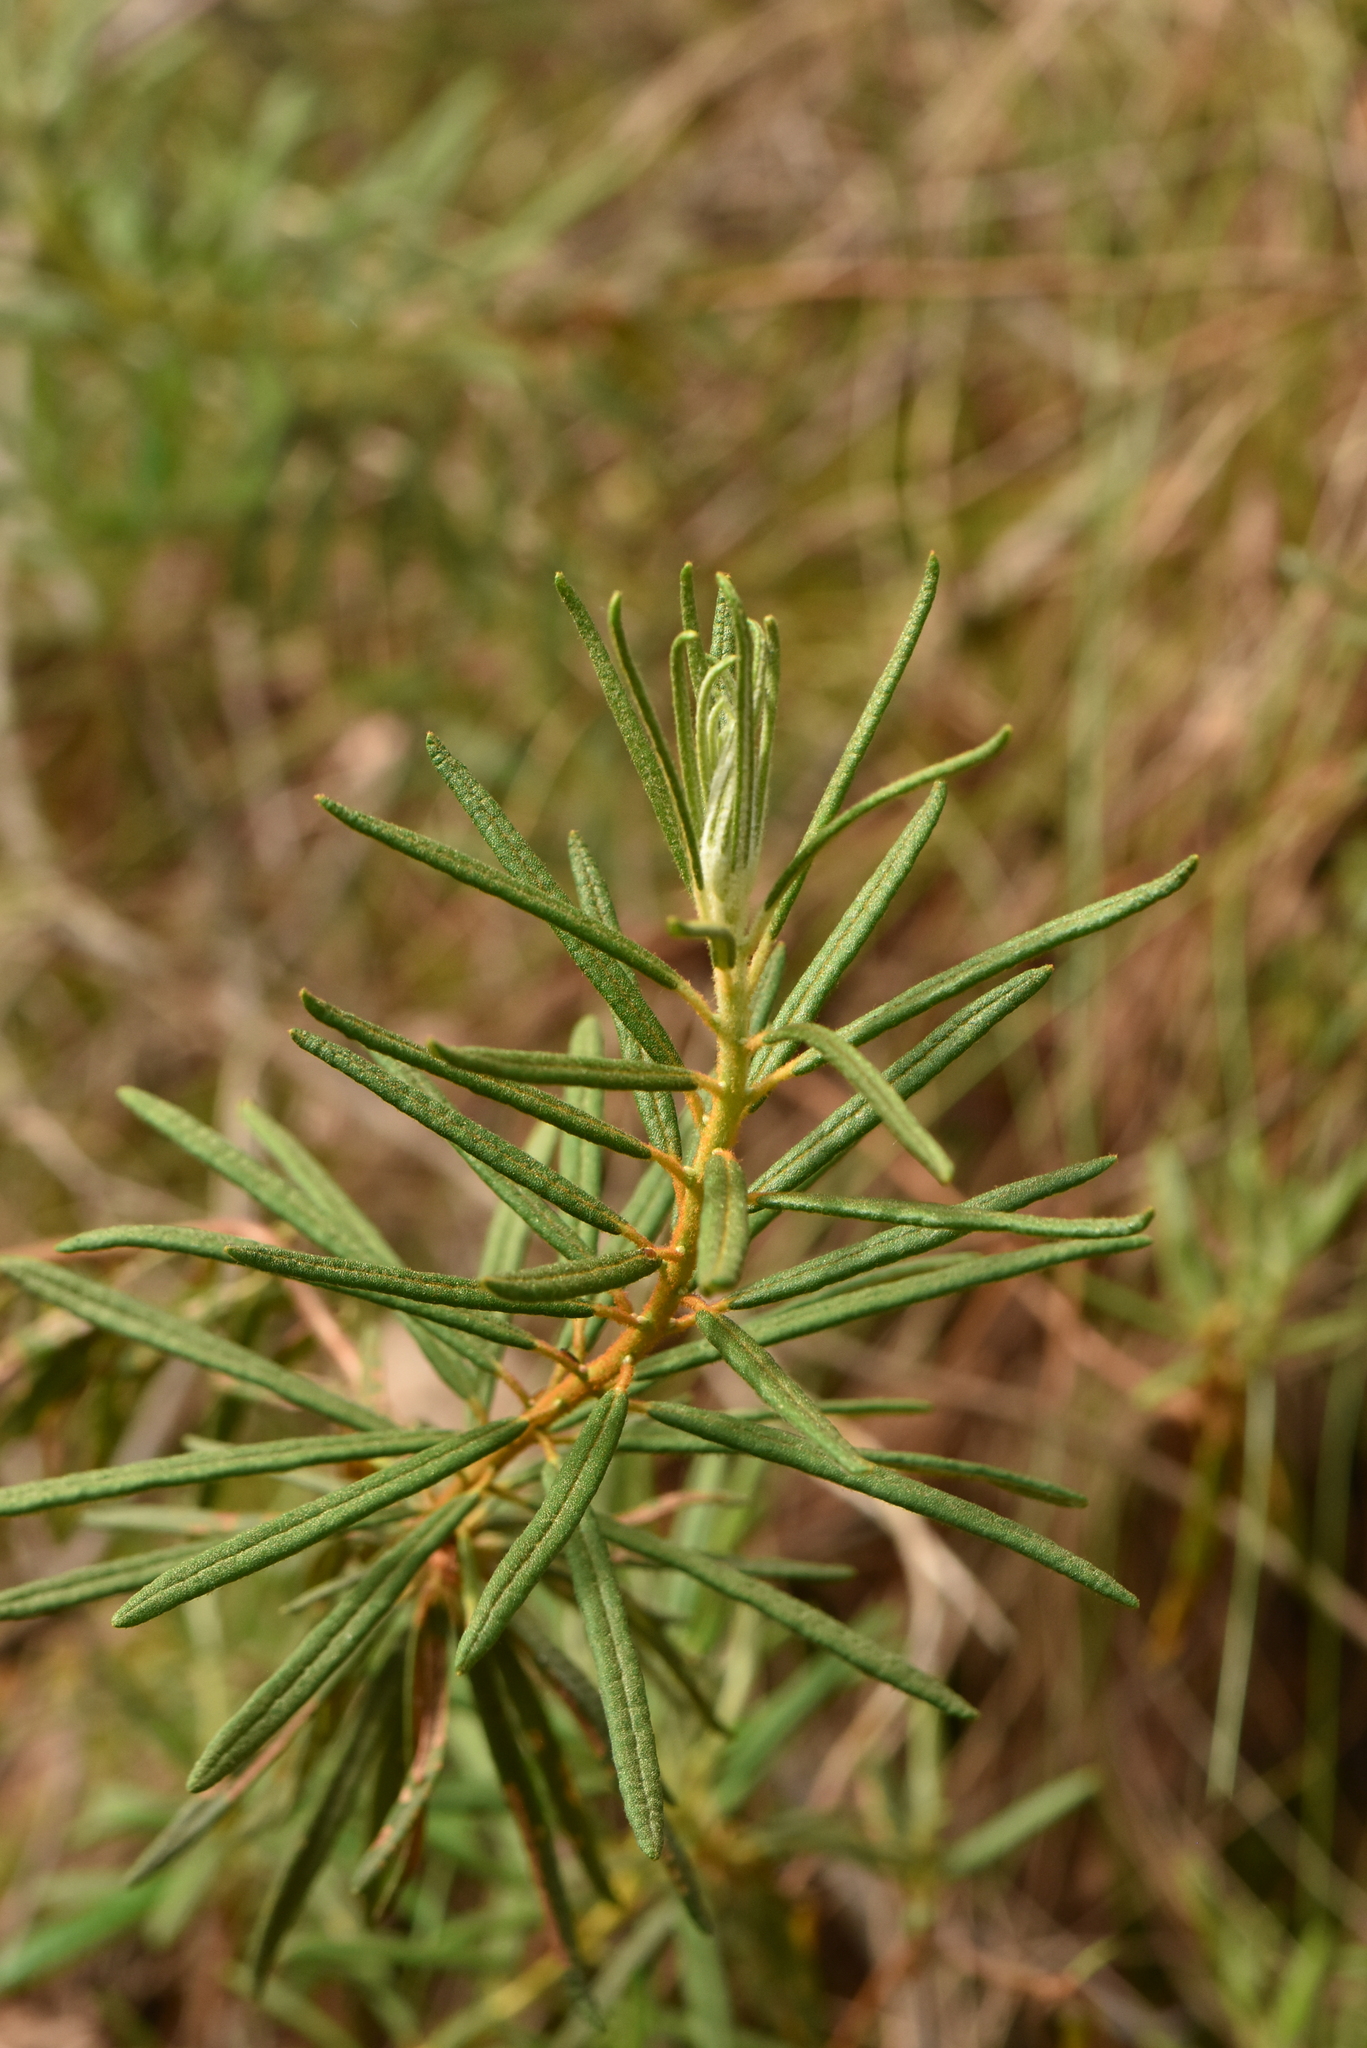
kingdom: Plantae
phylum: Tracheophyta
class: Magnoliopsida
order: Ericales
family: Ericaceae
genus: Rhododendron
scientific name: Rhododendron tomentosum
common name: Marsh labrador tea
